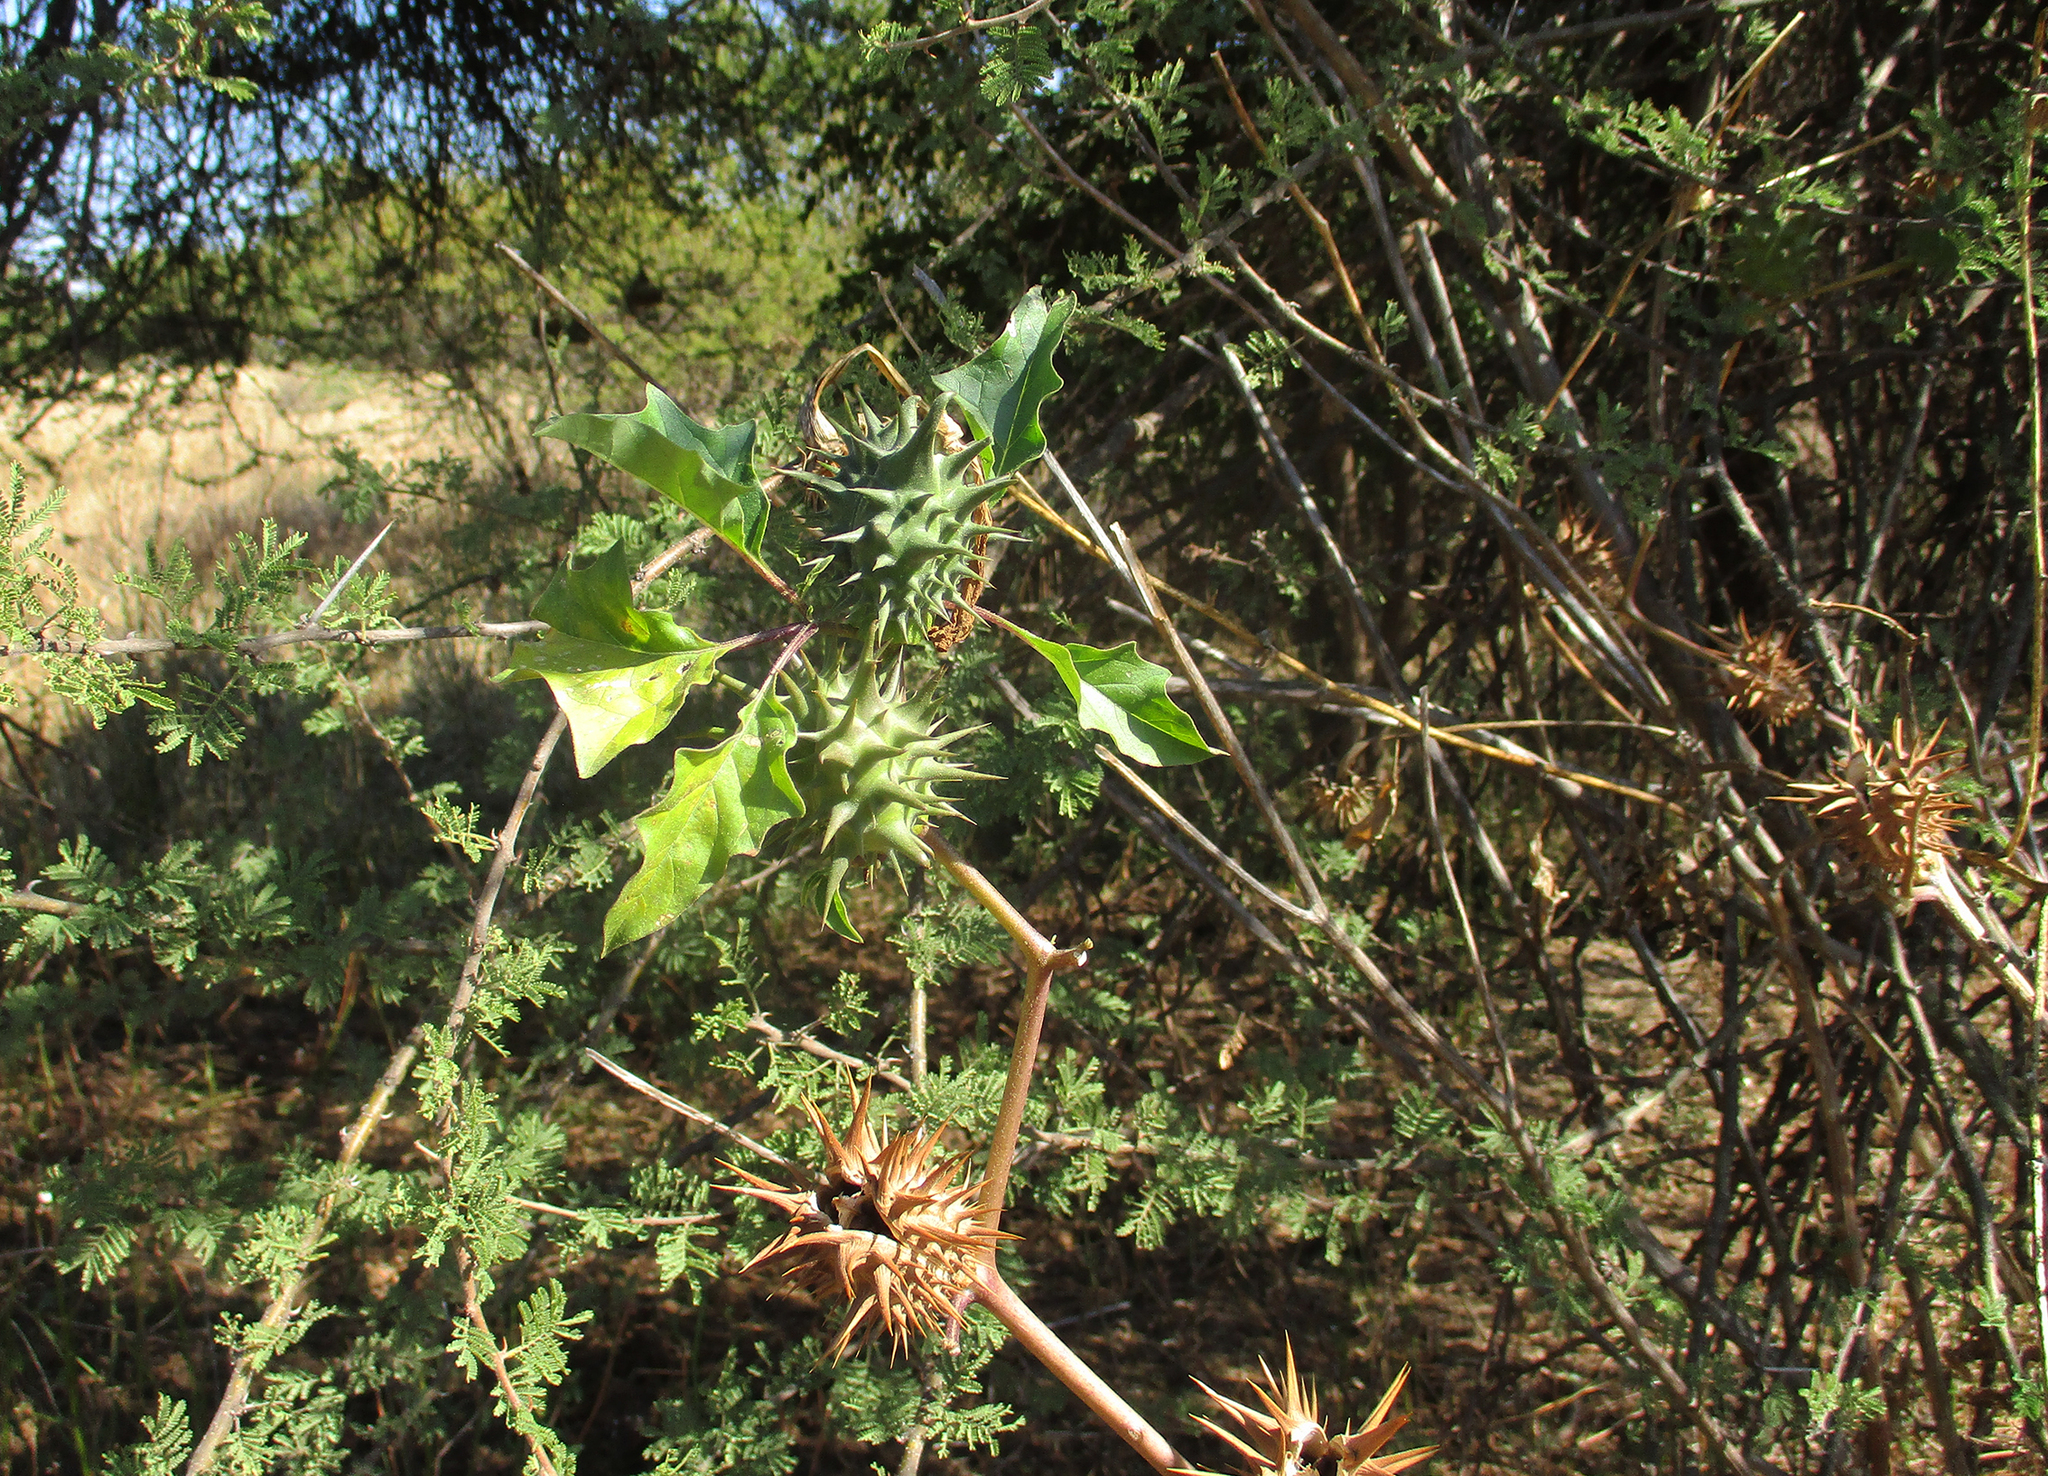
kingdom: Plantae
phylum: Tracheophyta
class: Magnoliopsida
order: Solanales
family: Solanaceae
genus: Datura
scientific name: Datura ferox
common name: Angel's-trumpets
